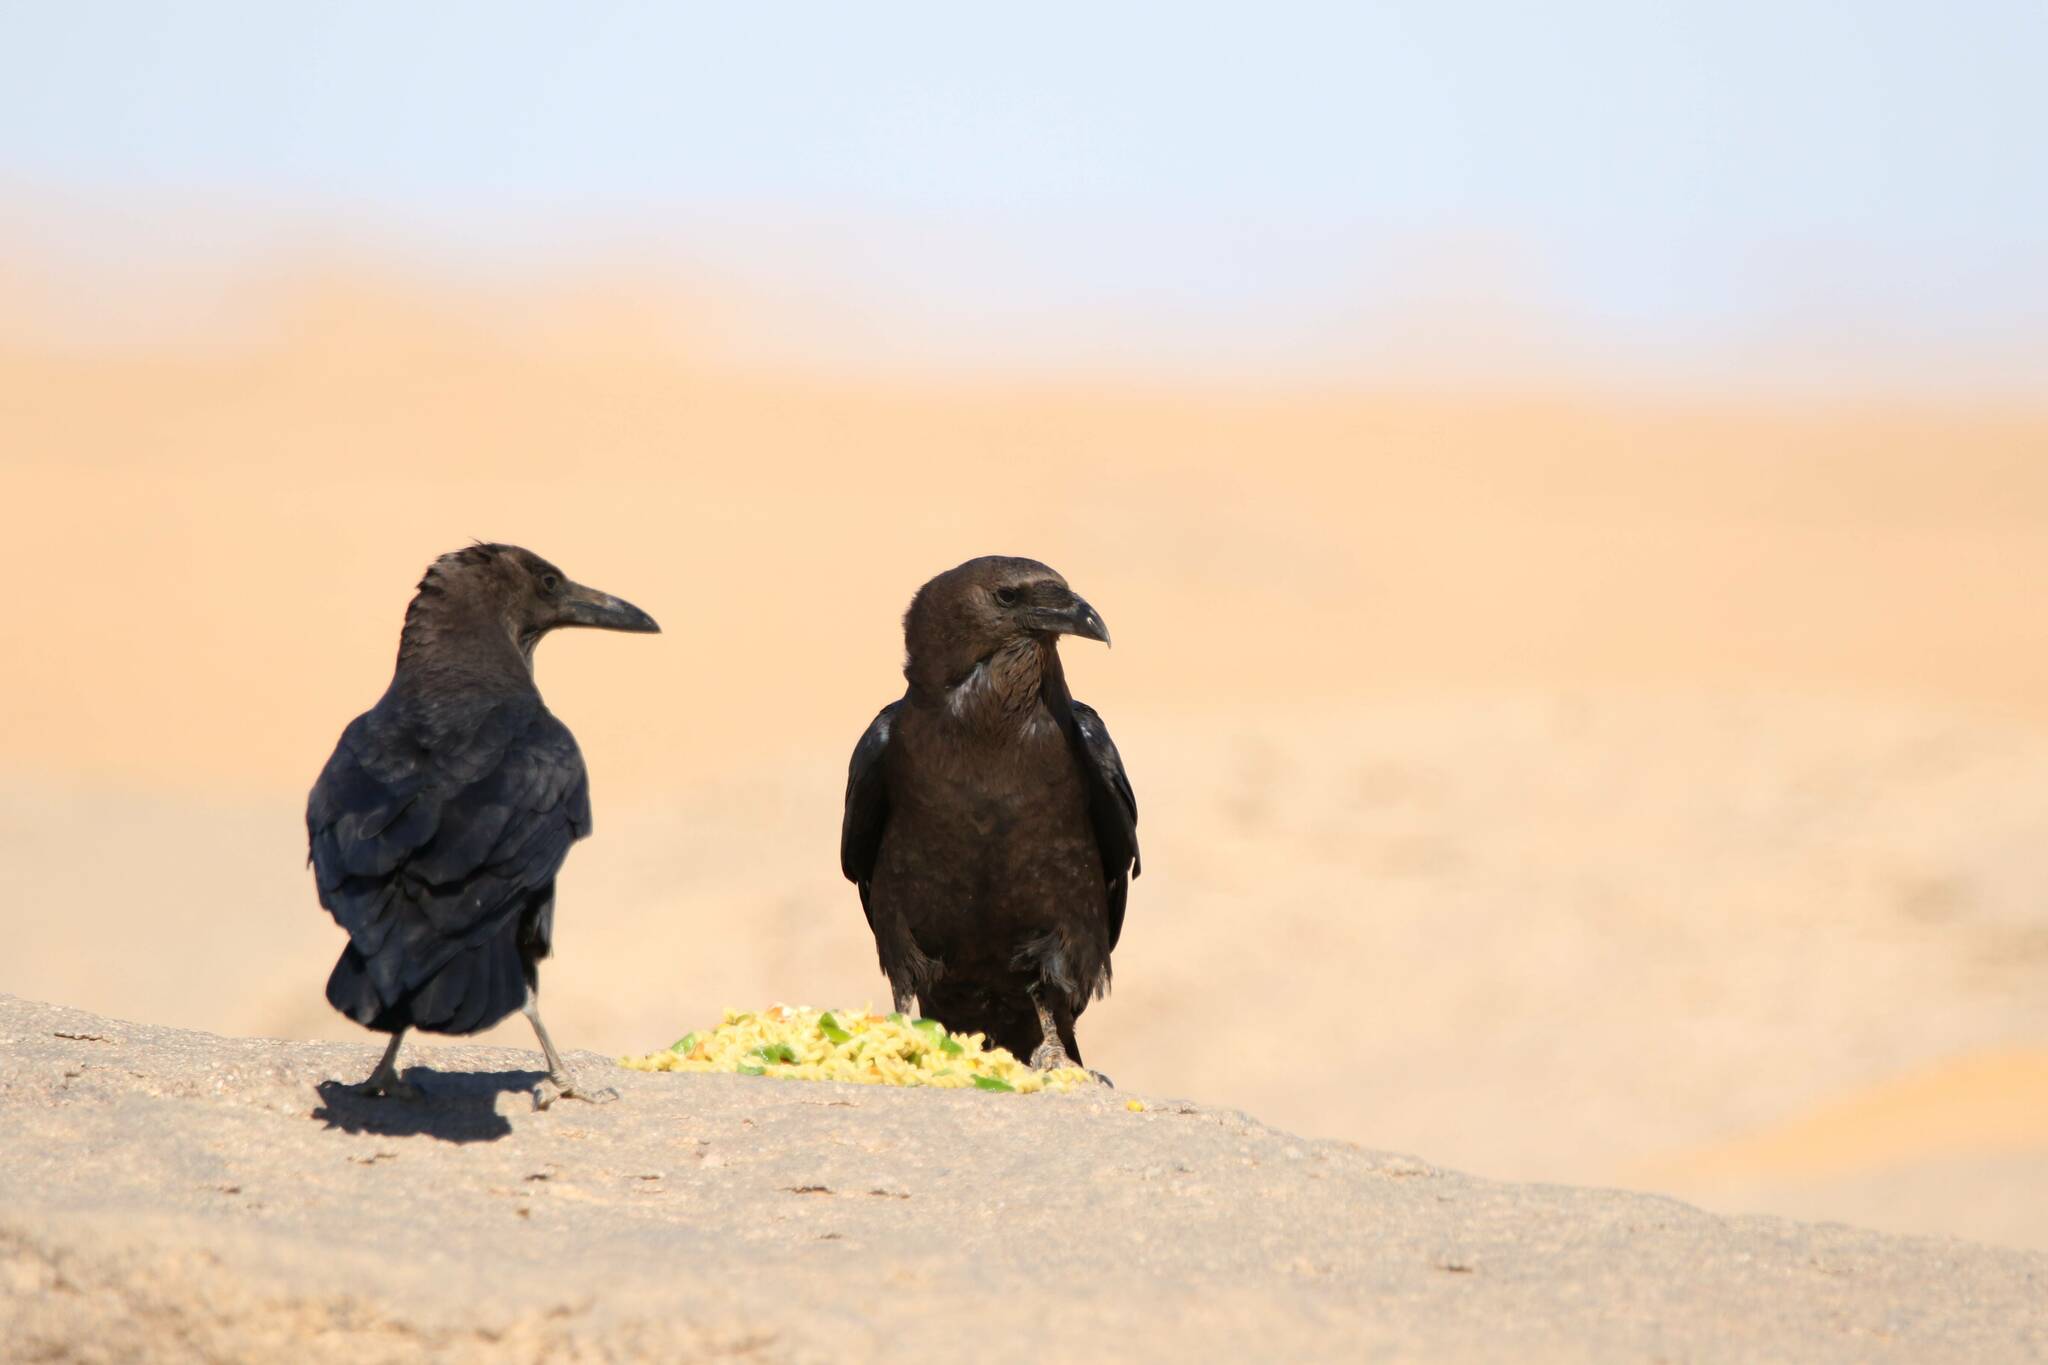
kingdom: Animalia
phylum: Chordata
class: Aves
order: Passeriformes
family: Corvidae
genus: Corvus
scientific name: Corvus ruficollis
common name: Brown-necked raven
